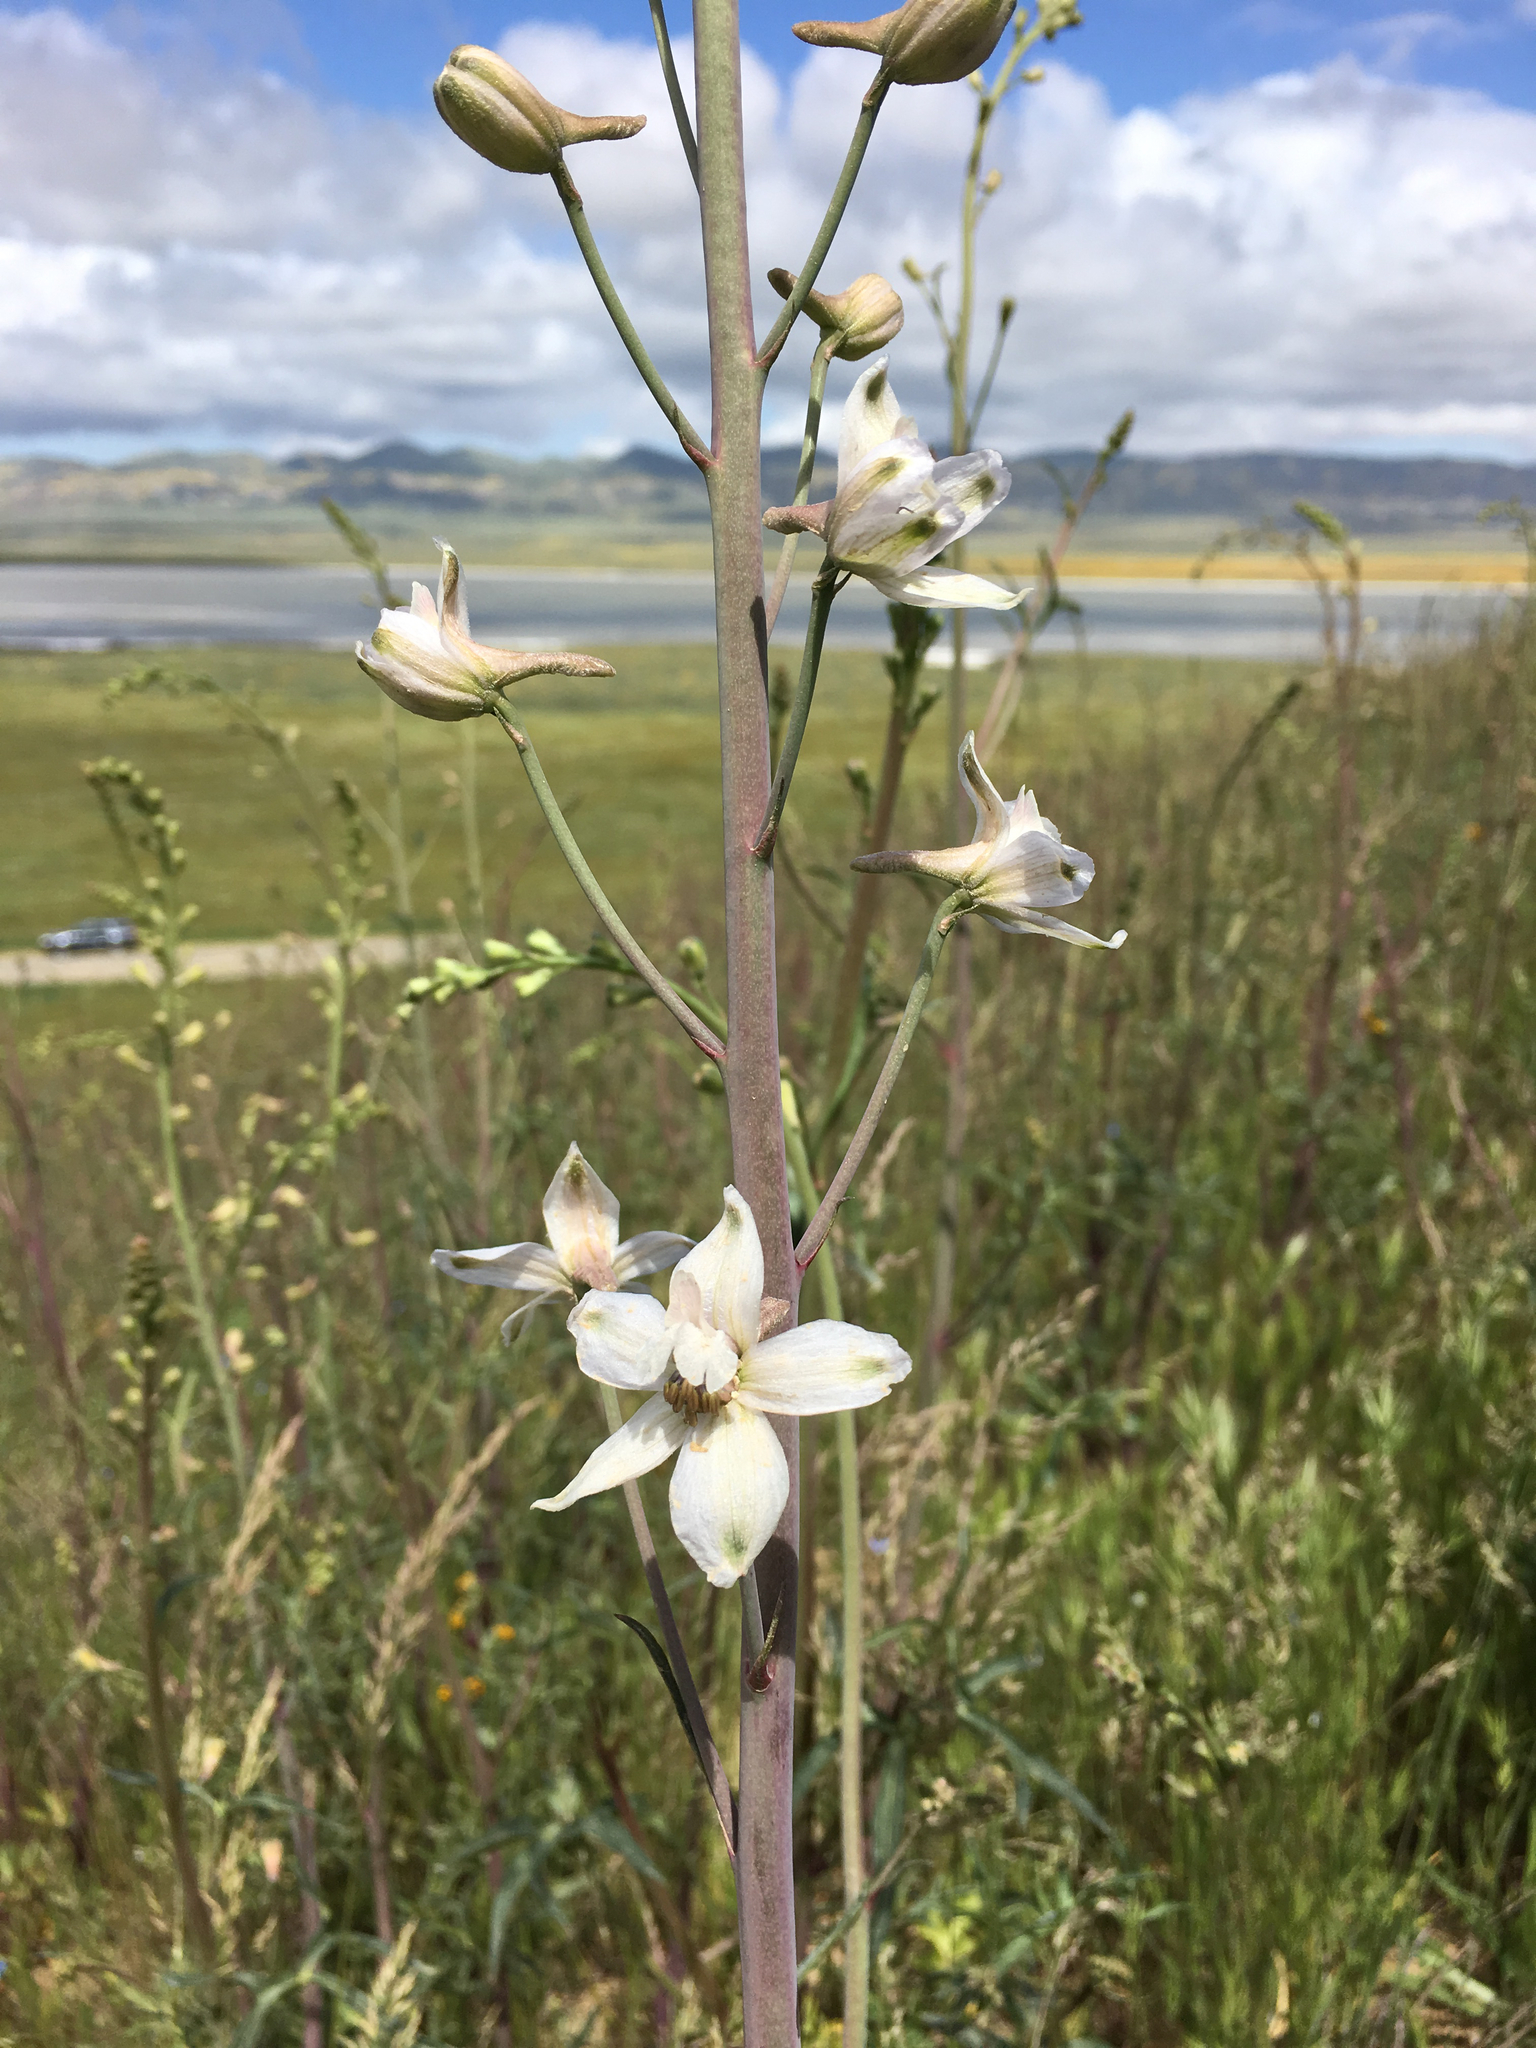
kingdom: Plantae
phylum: Tracheophyta
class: Magnoliopsida
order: Ranunculales
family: Ranunculaceae
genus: Delphinium
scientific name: Delphinium gypsophilum
